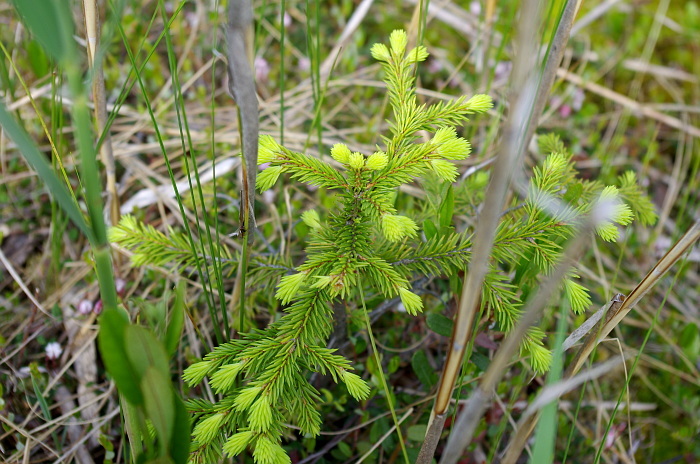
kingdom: Plantae
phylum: Tracheophyta
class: Pinopsida
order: Pinales
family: Pinaceae
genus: Picea
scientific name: Picea abies
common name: Norway spruce
